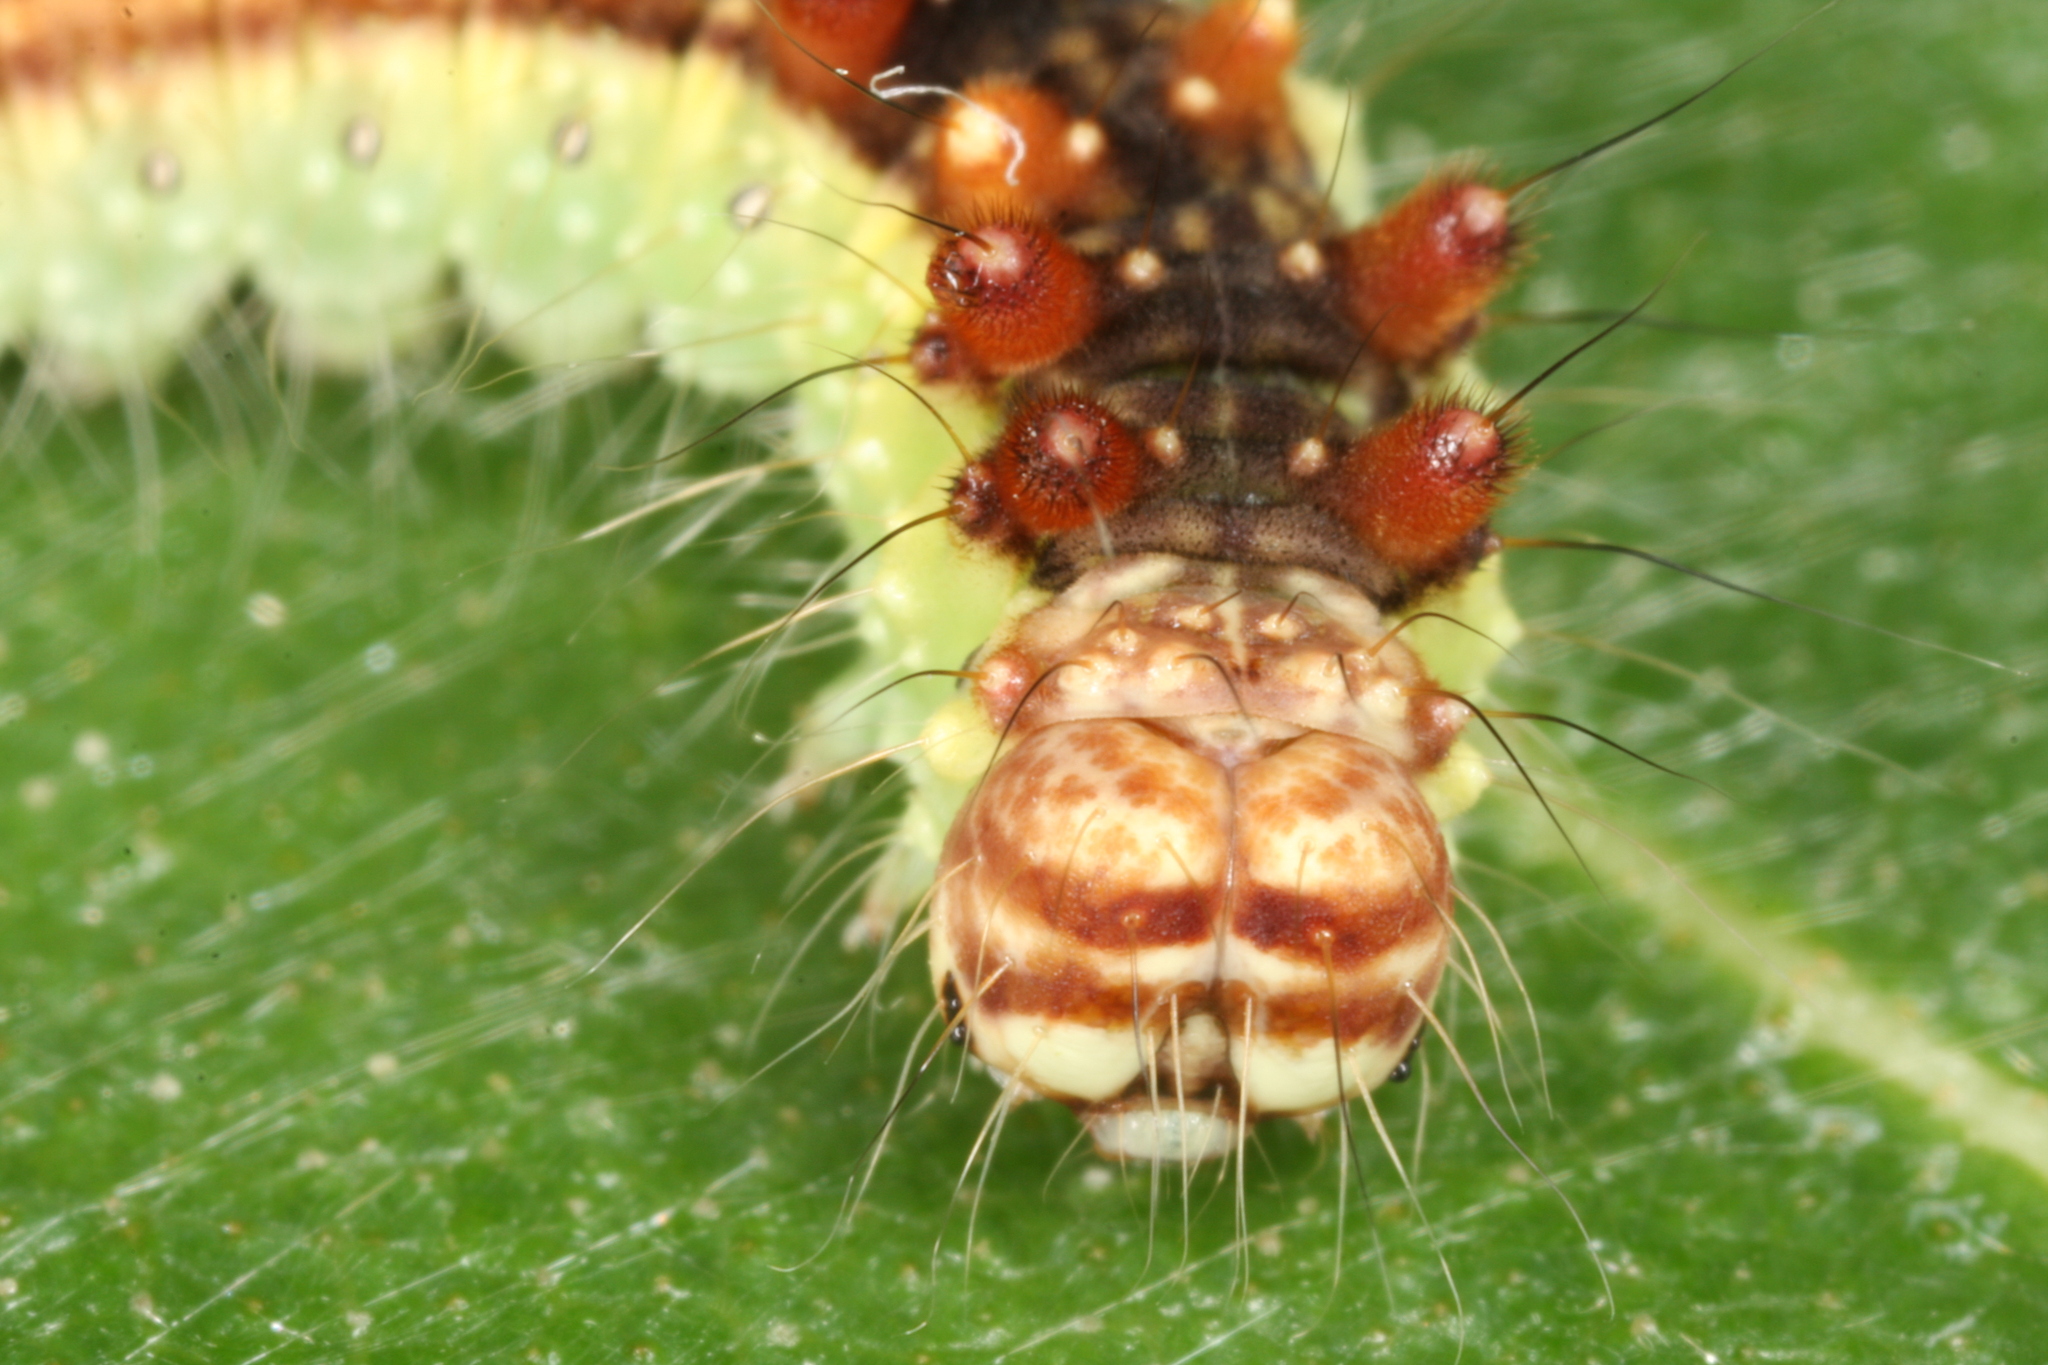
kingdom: Animalia
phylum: Arthropoda
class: Insecta
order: Lepidoptera
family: Drepanidae
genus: Drepana
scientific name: Drepana falcataria
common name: Pebble hook-tip
